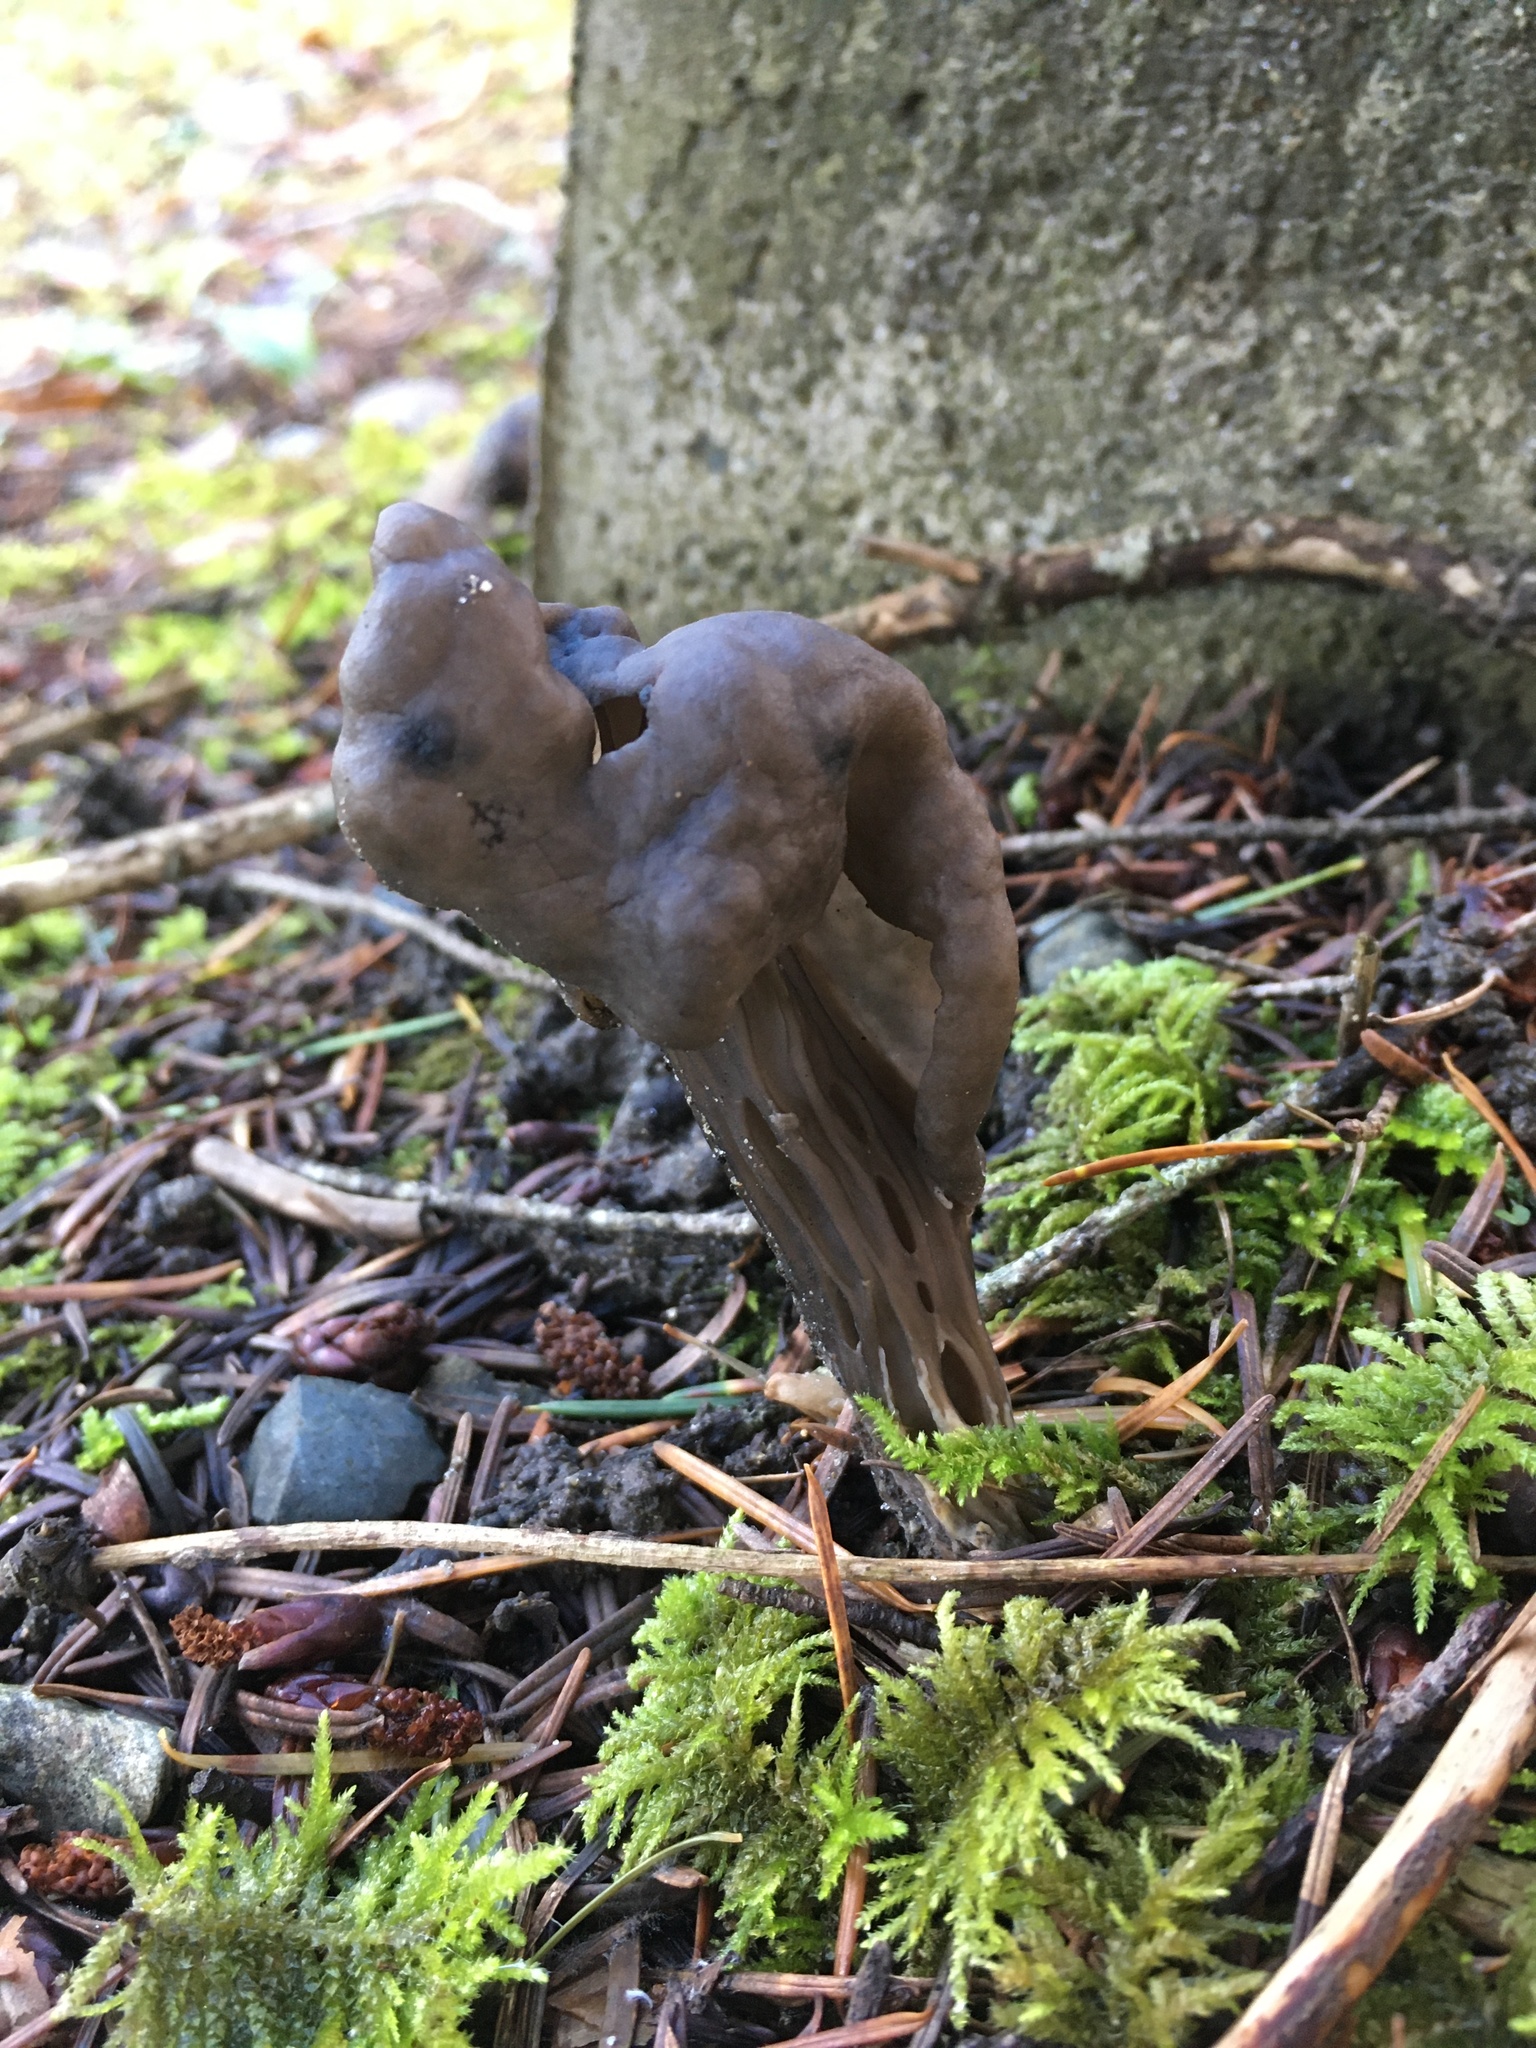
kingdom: Fungi
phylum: Ascomycota
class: Pezizomycetes
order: Pezizales
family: Helvellaceae
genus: Helvella
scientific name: Helvella vespertina
